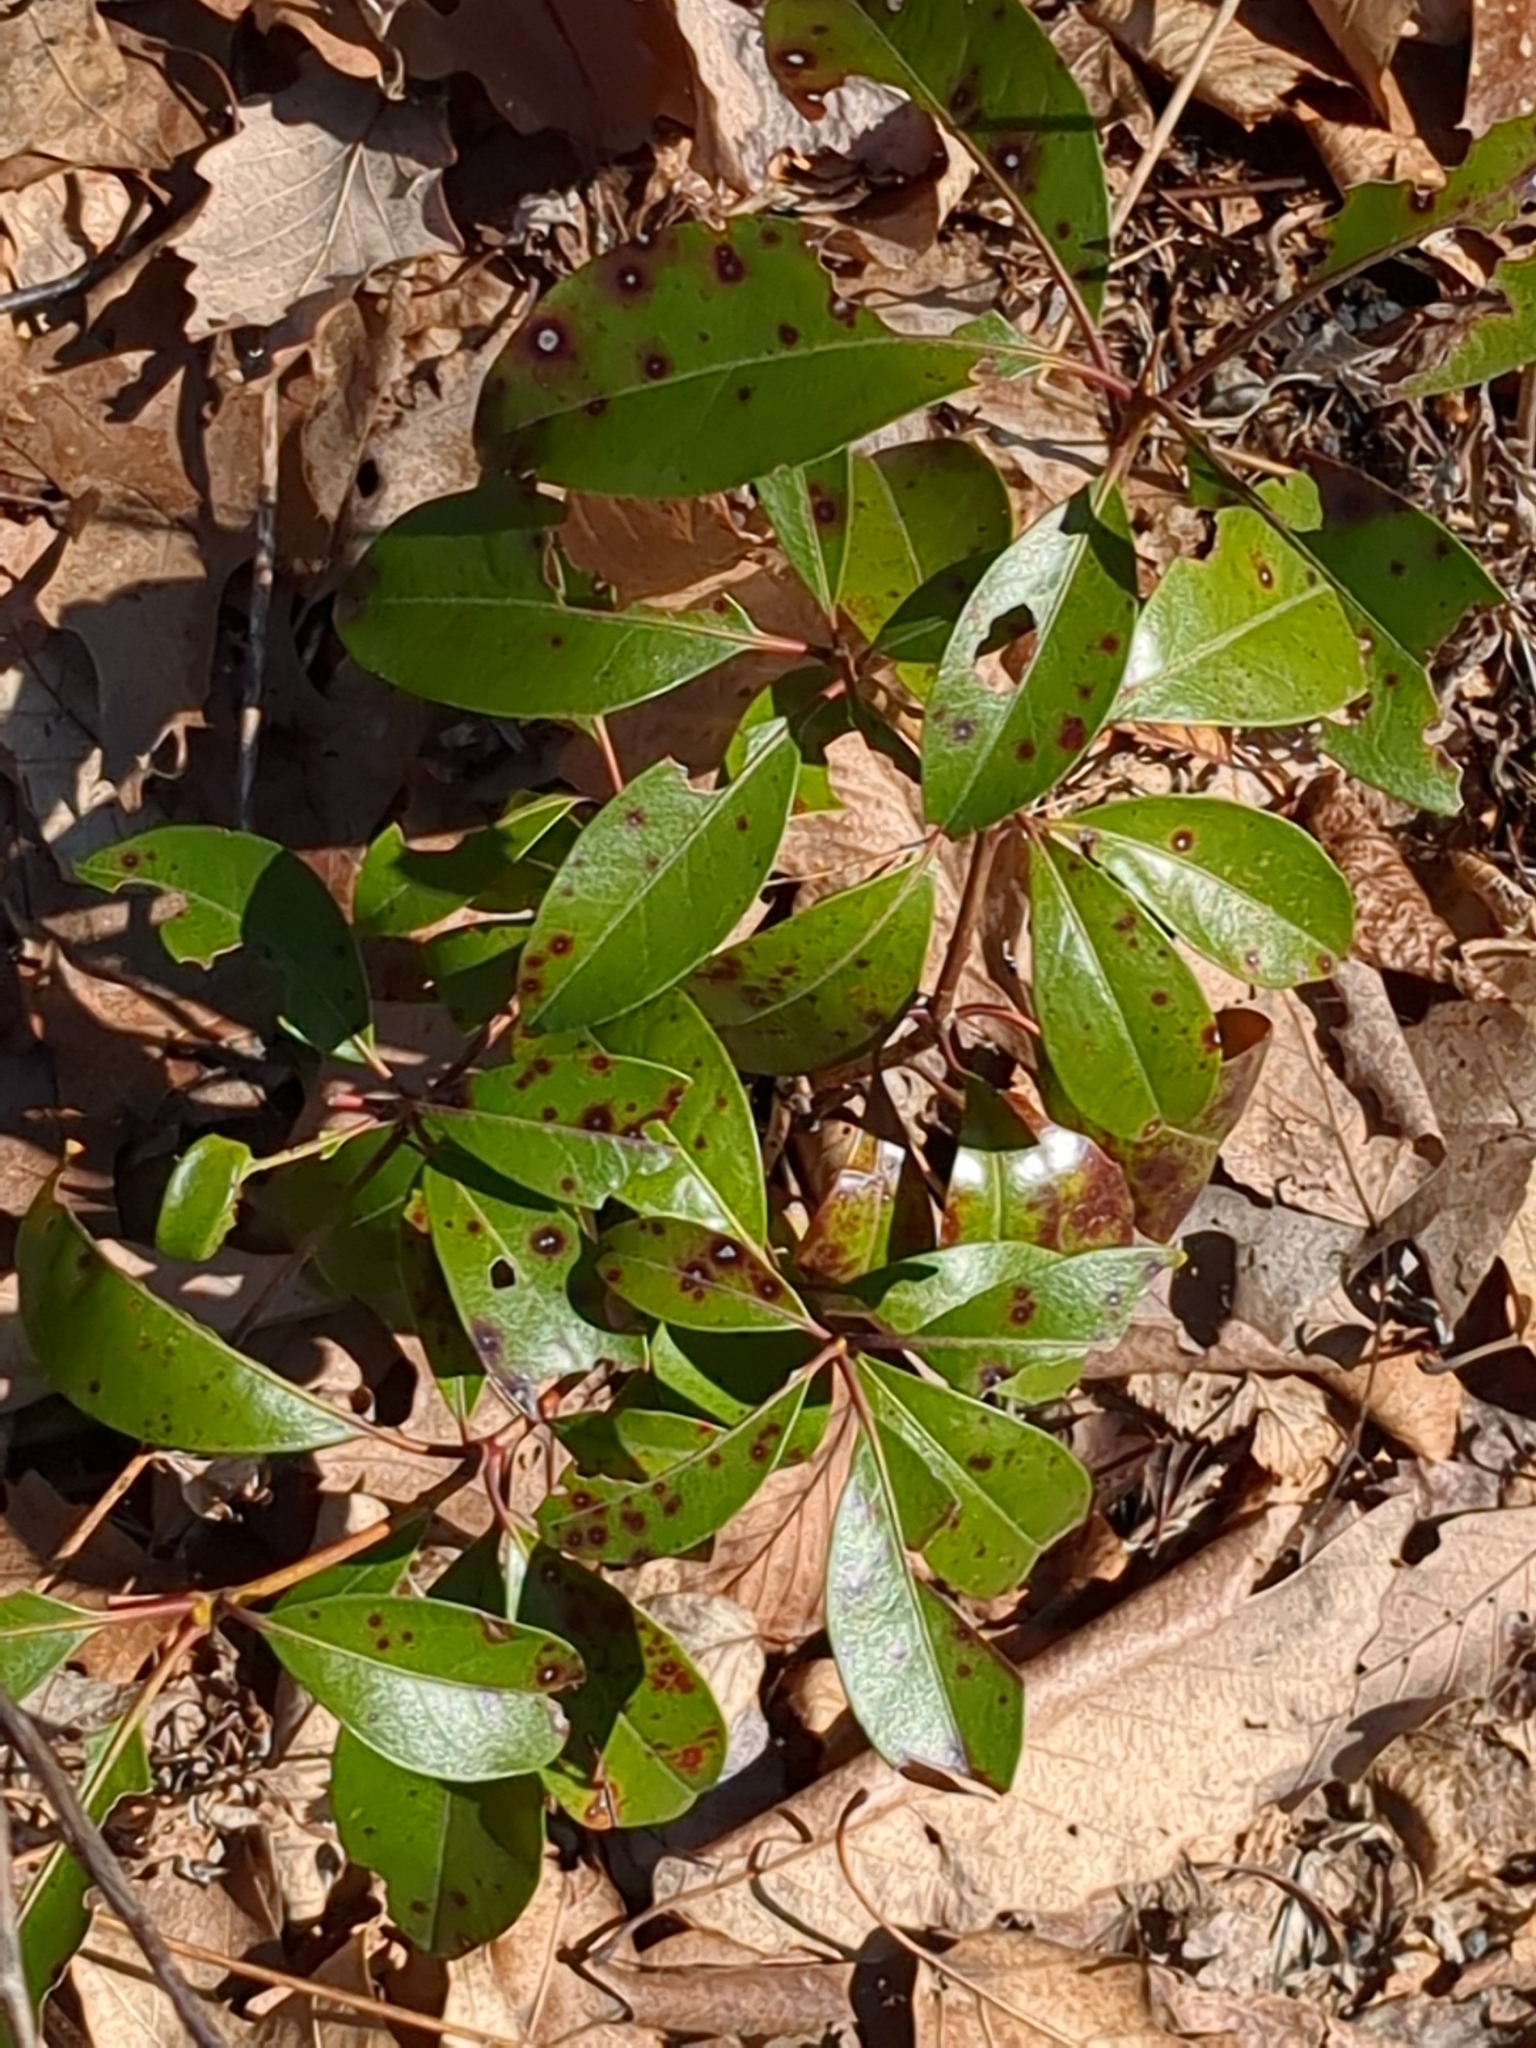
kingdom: Plantae
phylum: Tracheophyta
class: Magnoliopsida
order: Ericales
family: Ericaceae
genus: Kalmia
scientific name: Kalmia latifolia
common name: Mountain-laurel
